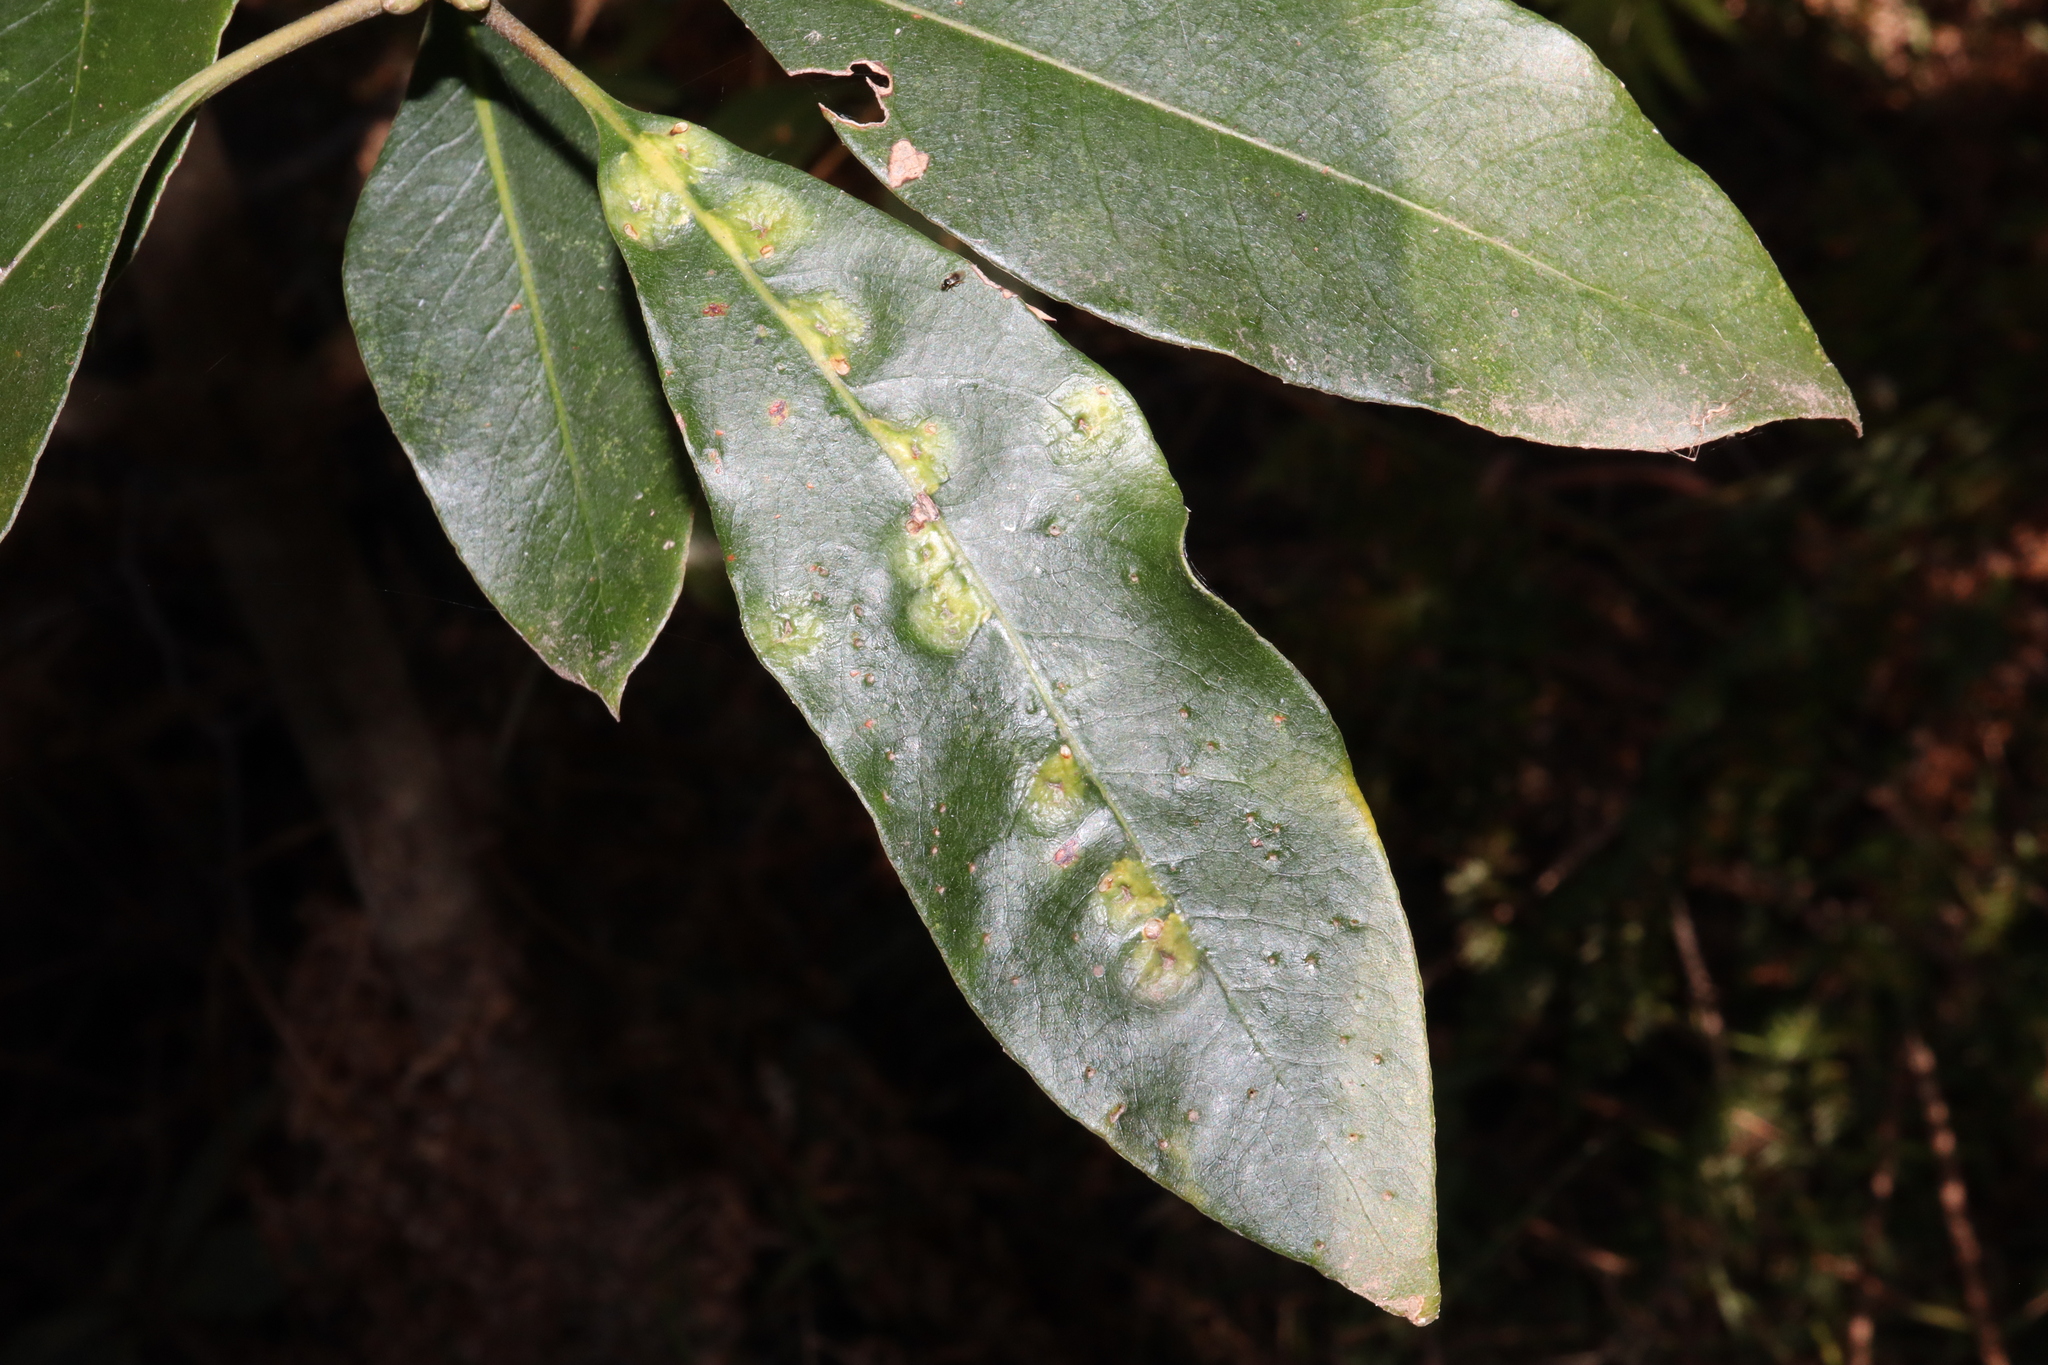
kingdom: Animalia
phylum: Arthropoda
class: Insecta
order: Diptera
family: Agromyzidae
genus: Phytoliriomyza
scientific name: Phytoliriomyza pittosporophylli
